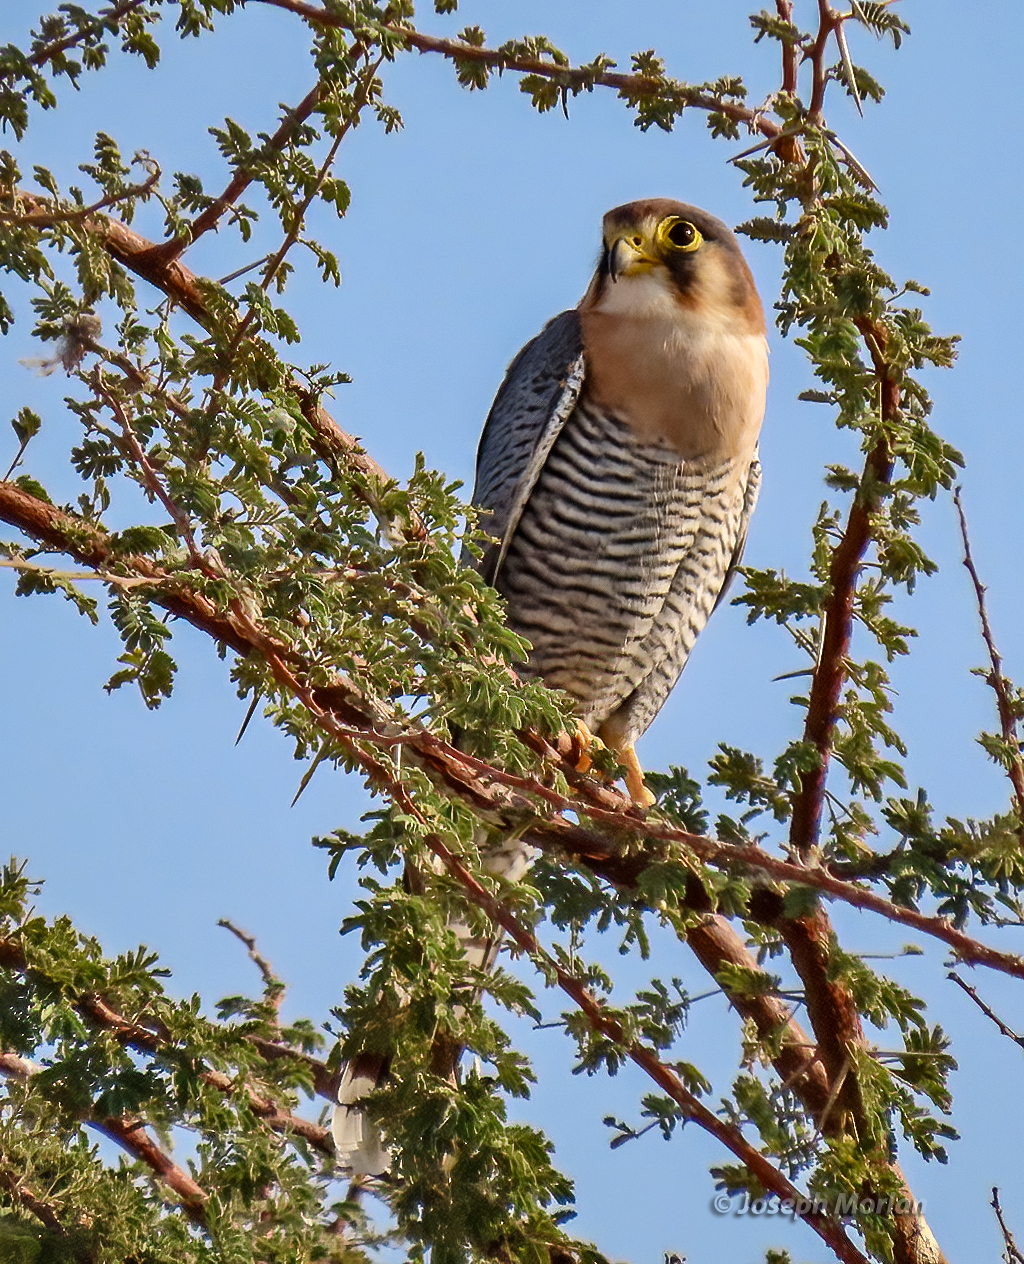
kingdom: Animalia
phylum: Chordata
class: Aves
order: Falconiformes
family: Falconidae
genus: Falco
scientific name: Falco chicquera
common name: Red-necked falcon
